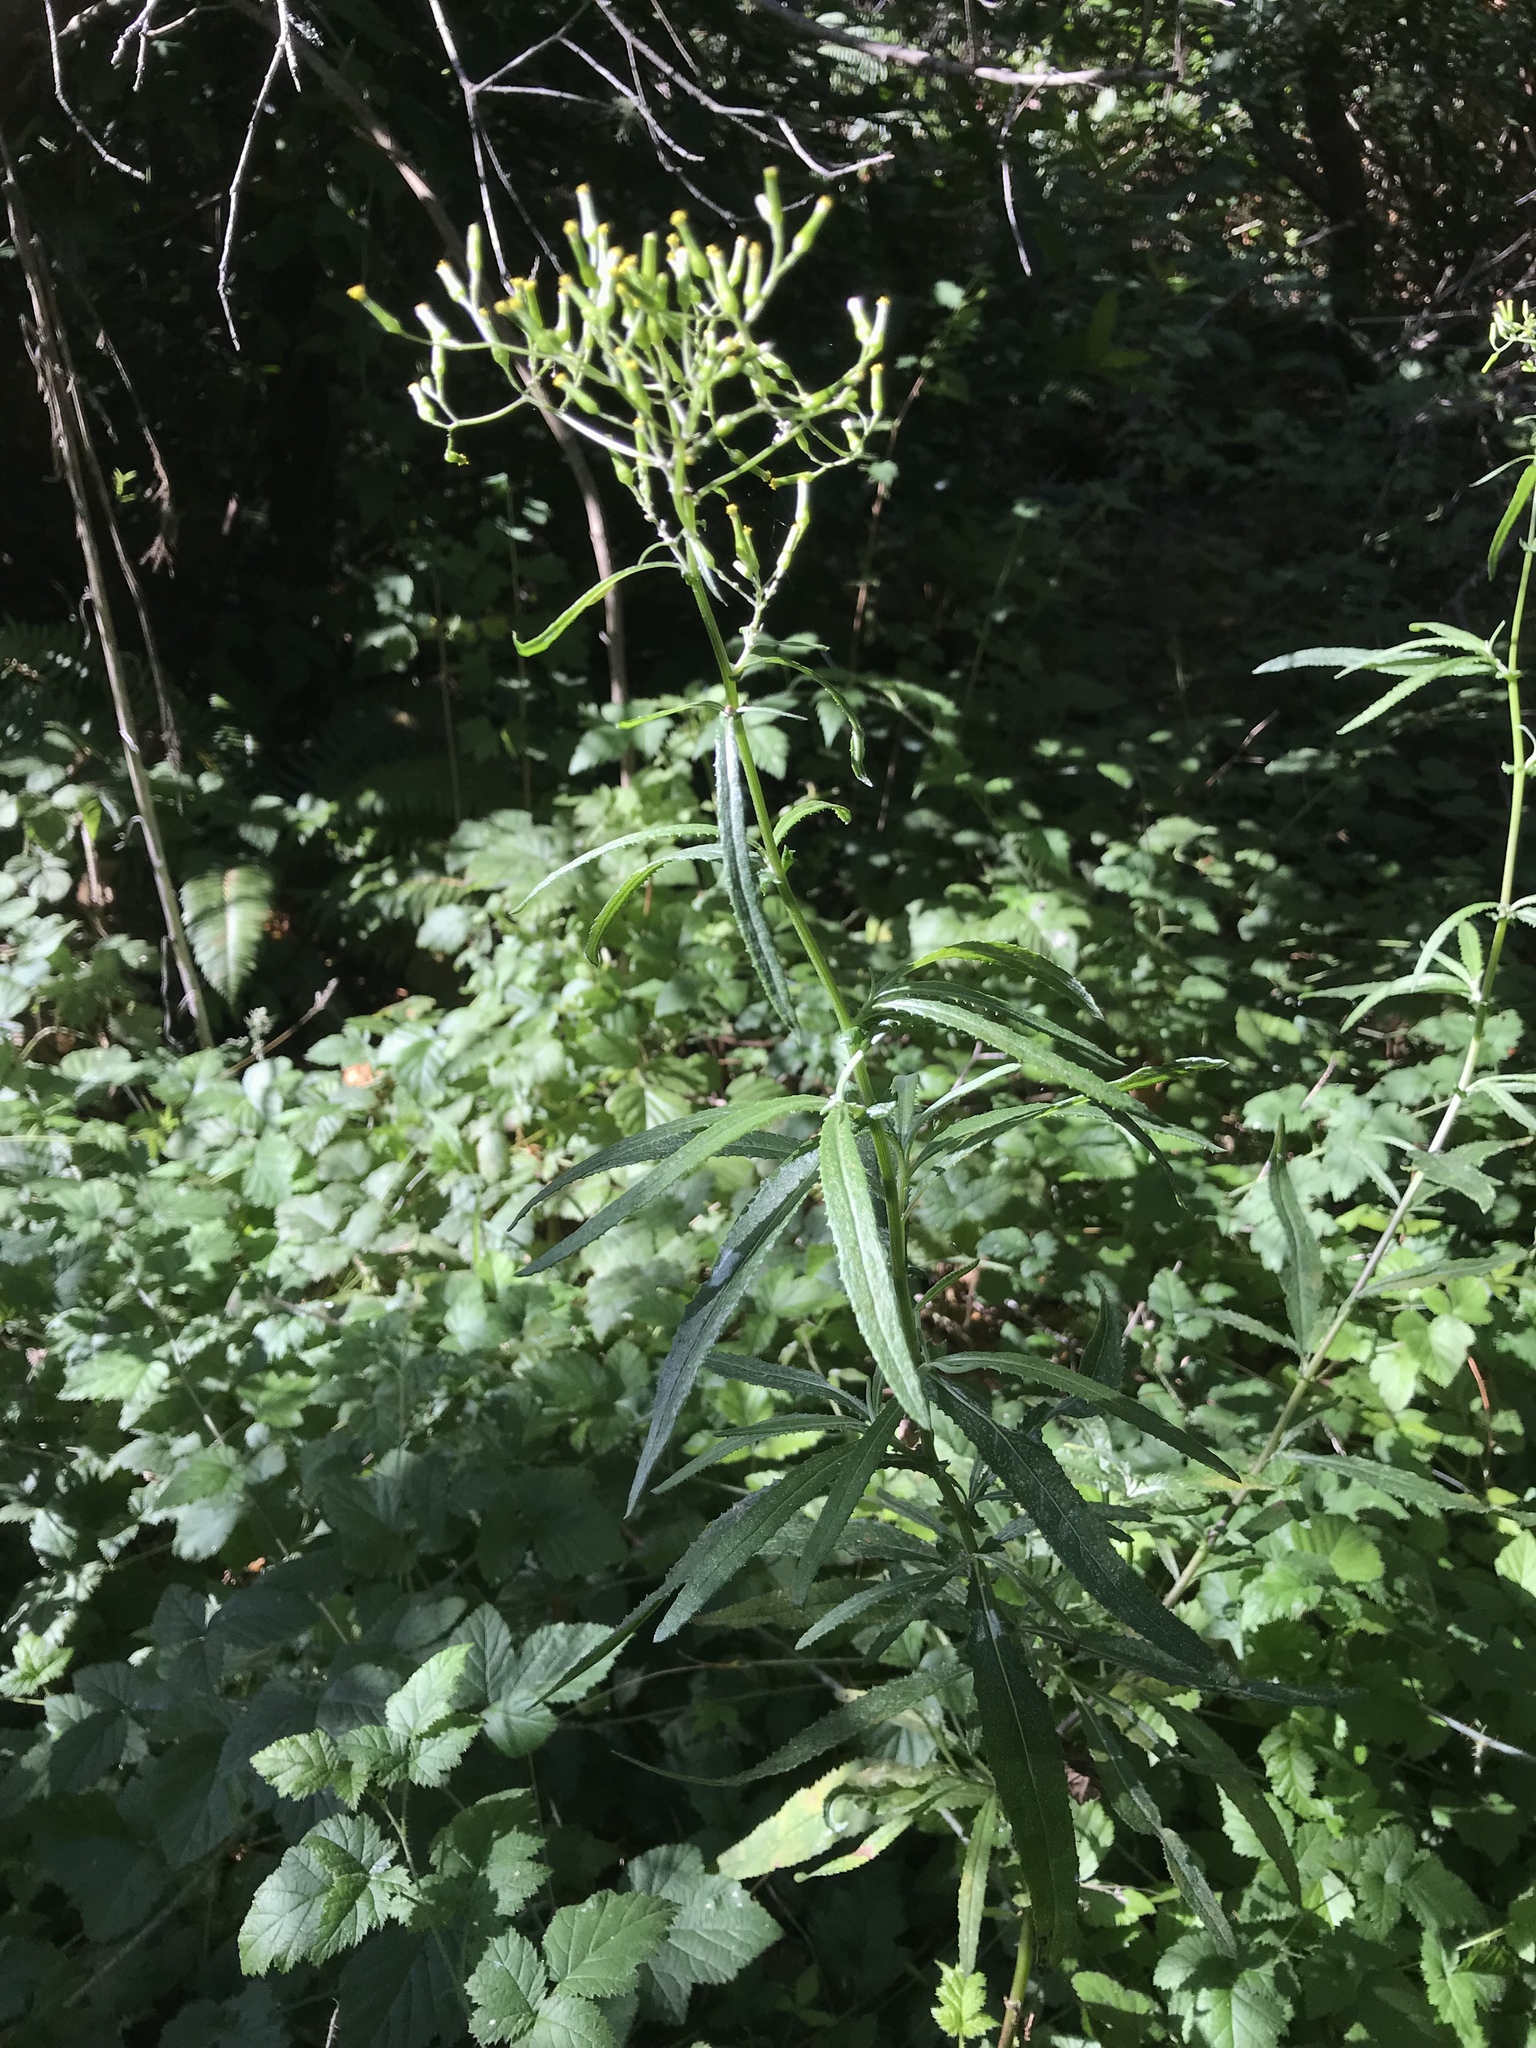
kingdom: Plantae
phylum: Tracheophyta
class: Magnoliopsida
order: Asterales
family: Asteraceae
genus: Senecio
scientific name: Senecio minimus
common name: Toothed fireweed
